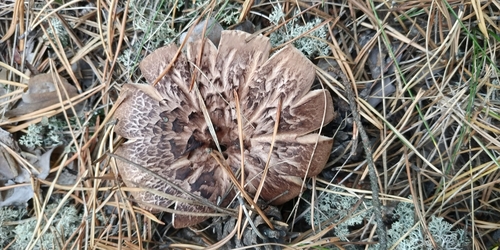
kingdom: Fungi
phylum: Basidiomycota
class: Agaricomycetes
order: Thelephorales
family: Bankeraceae
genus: Sarcodon
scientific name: Sarcodon imbricatus
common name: Shingled hedgehog
